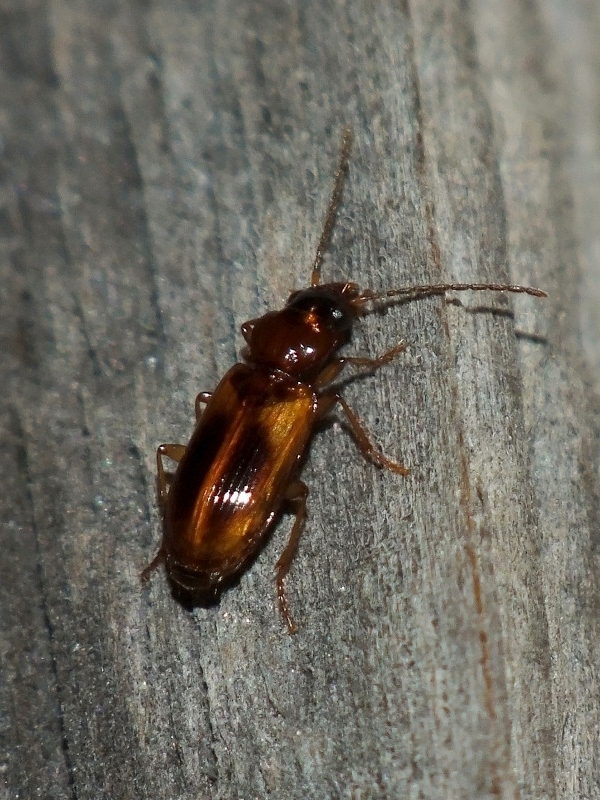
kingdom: Animalia
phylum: Arthropoda
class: Insecta
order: Coleoptera
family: Carabidae
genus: Anthracus
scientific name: Anthracus consputus
